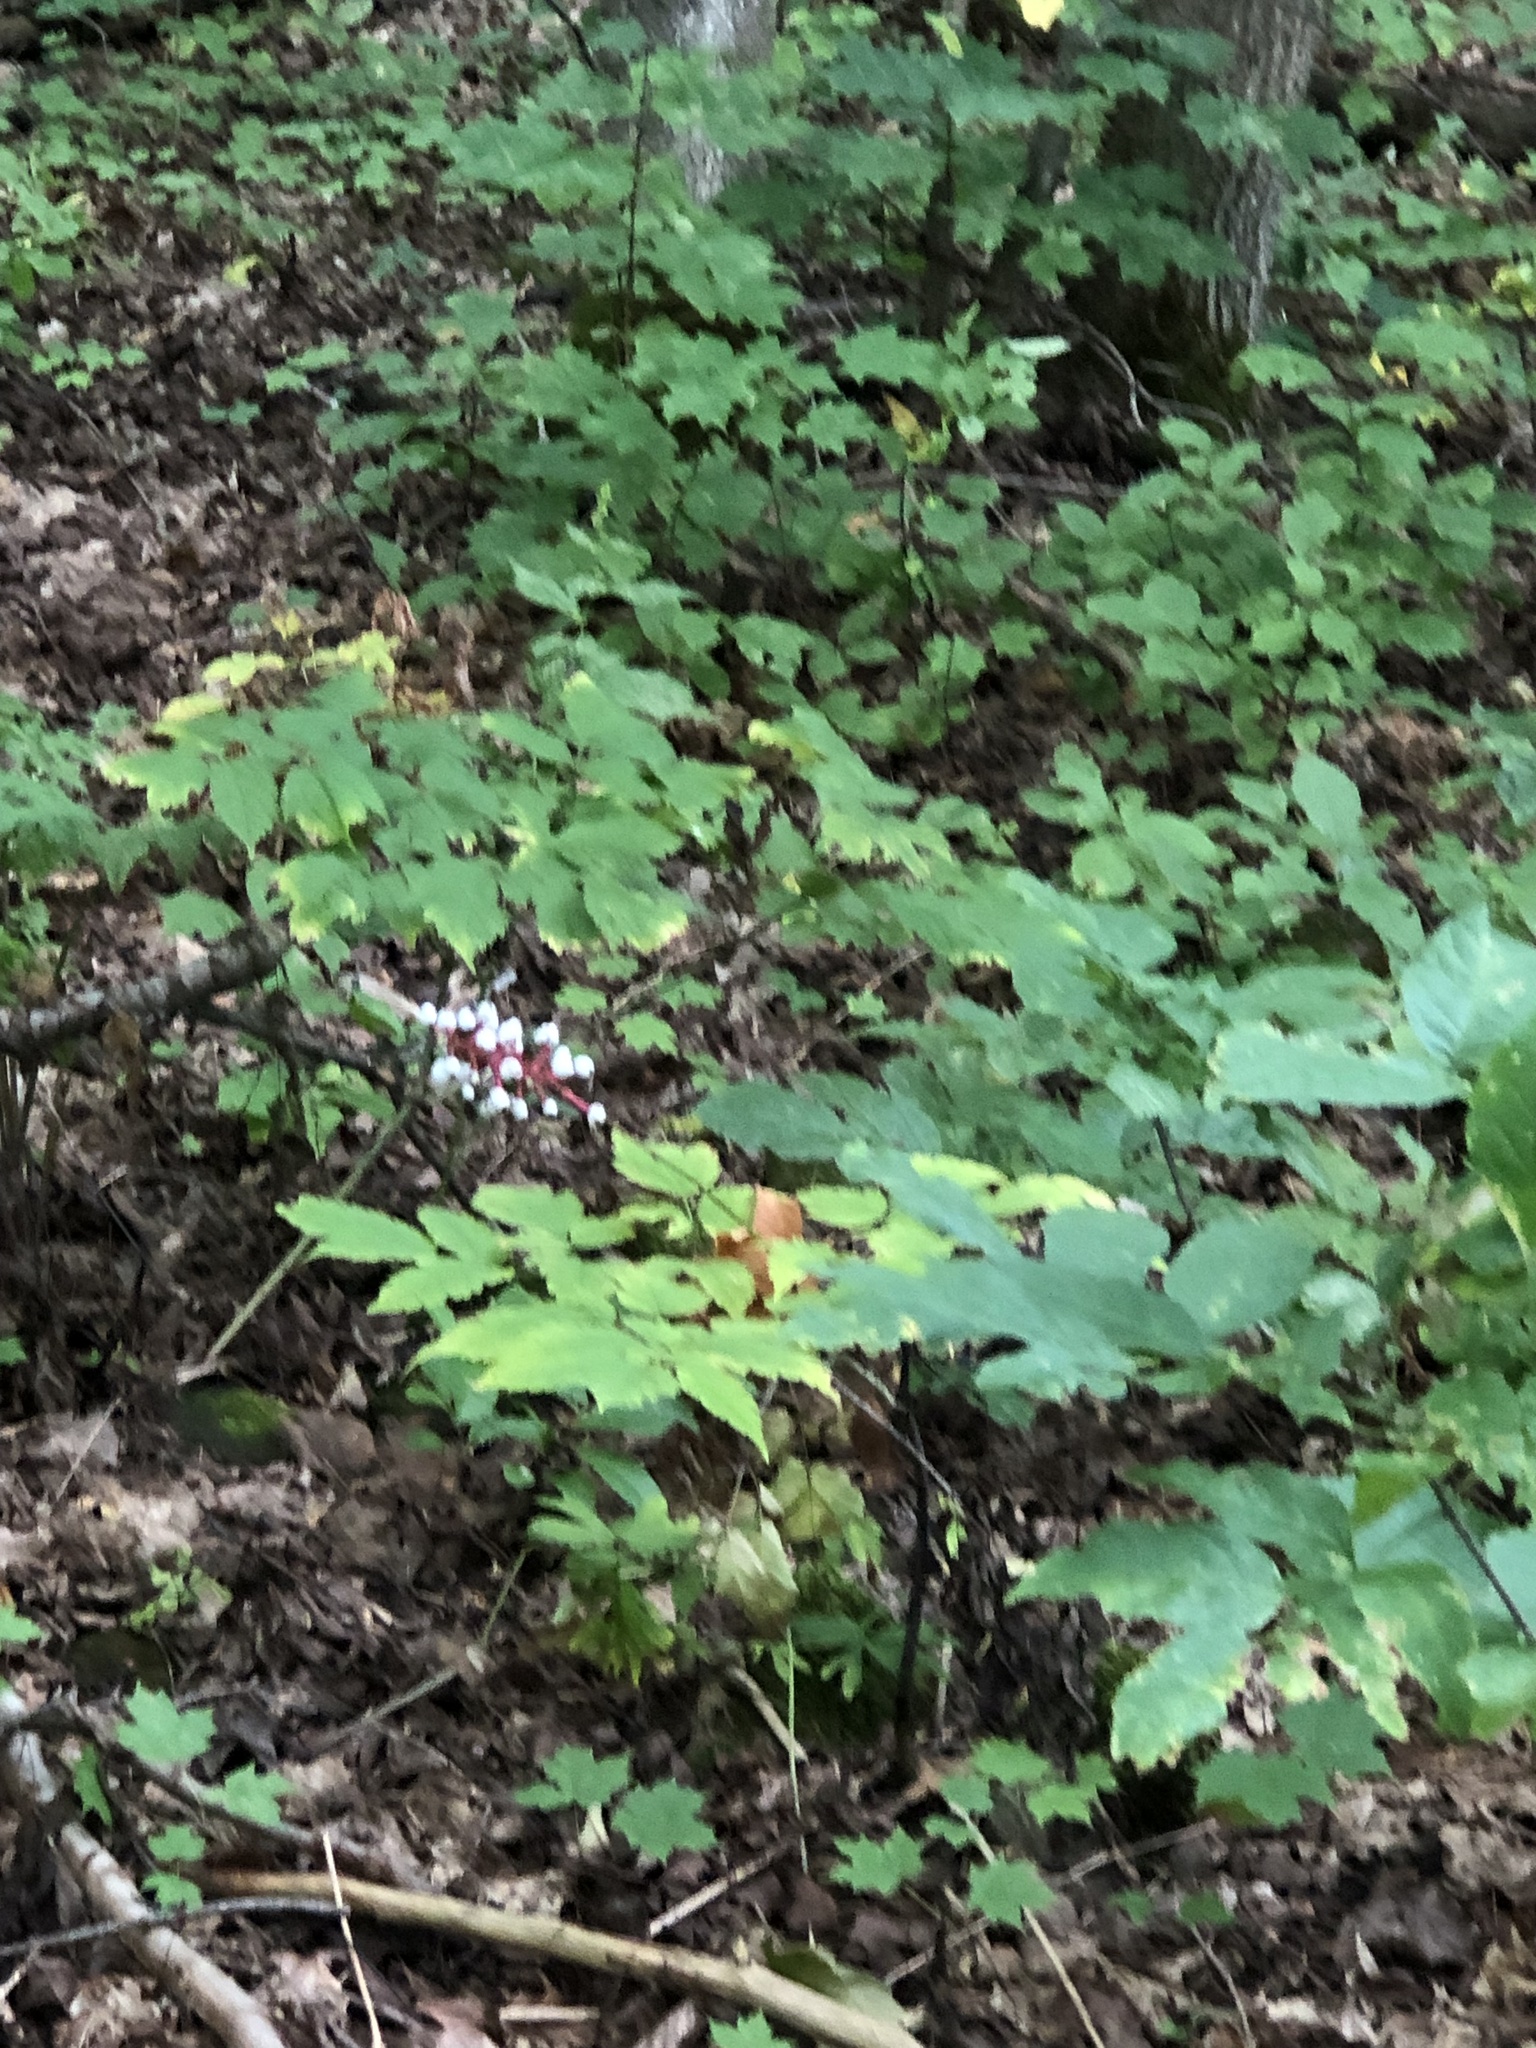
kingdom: Plantae
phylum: Tracheophyta
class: Magnoliopsida
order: Ranunculales
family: Ranunculaceae
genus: Actaea
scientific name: Actaea pachypoda
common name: Doll's-eyes
